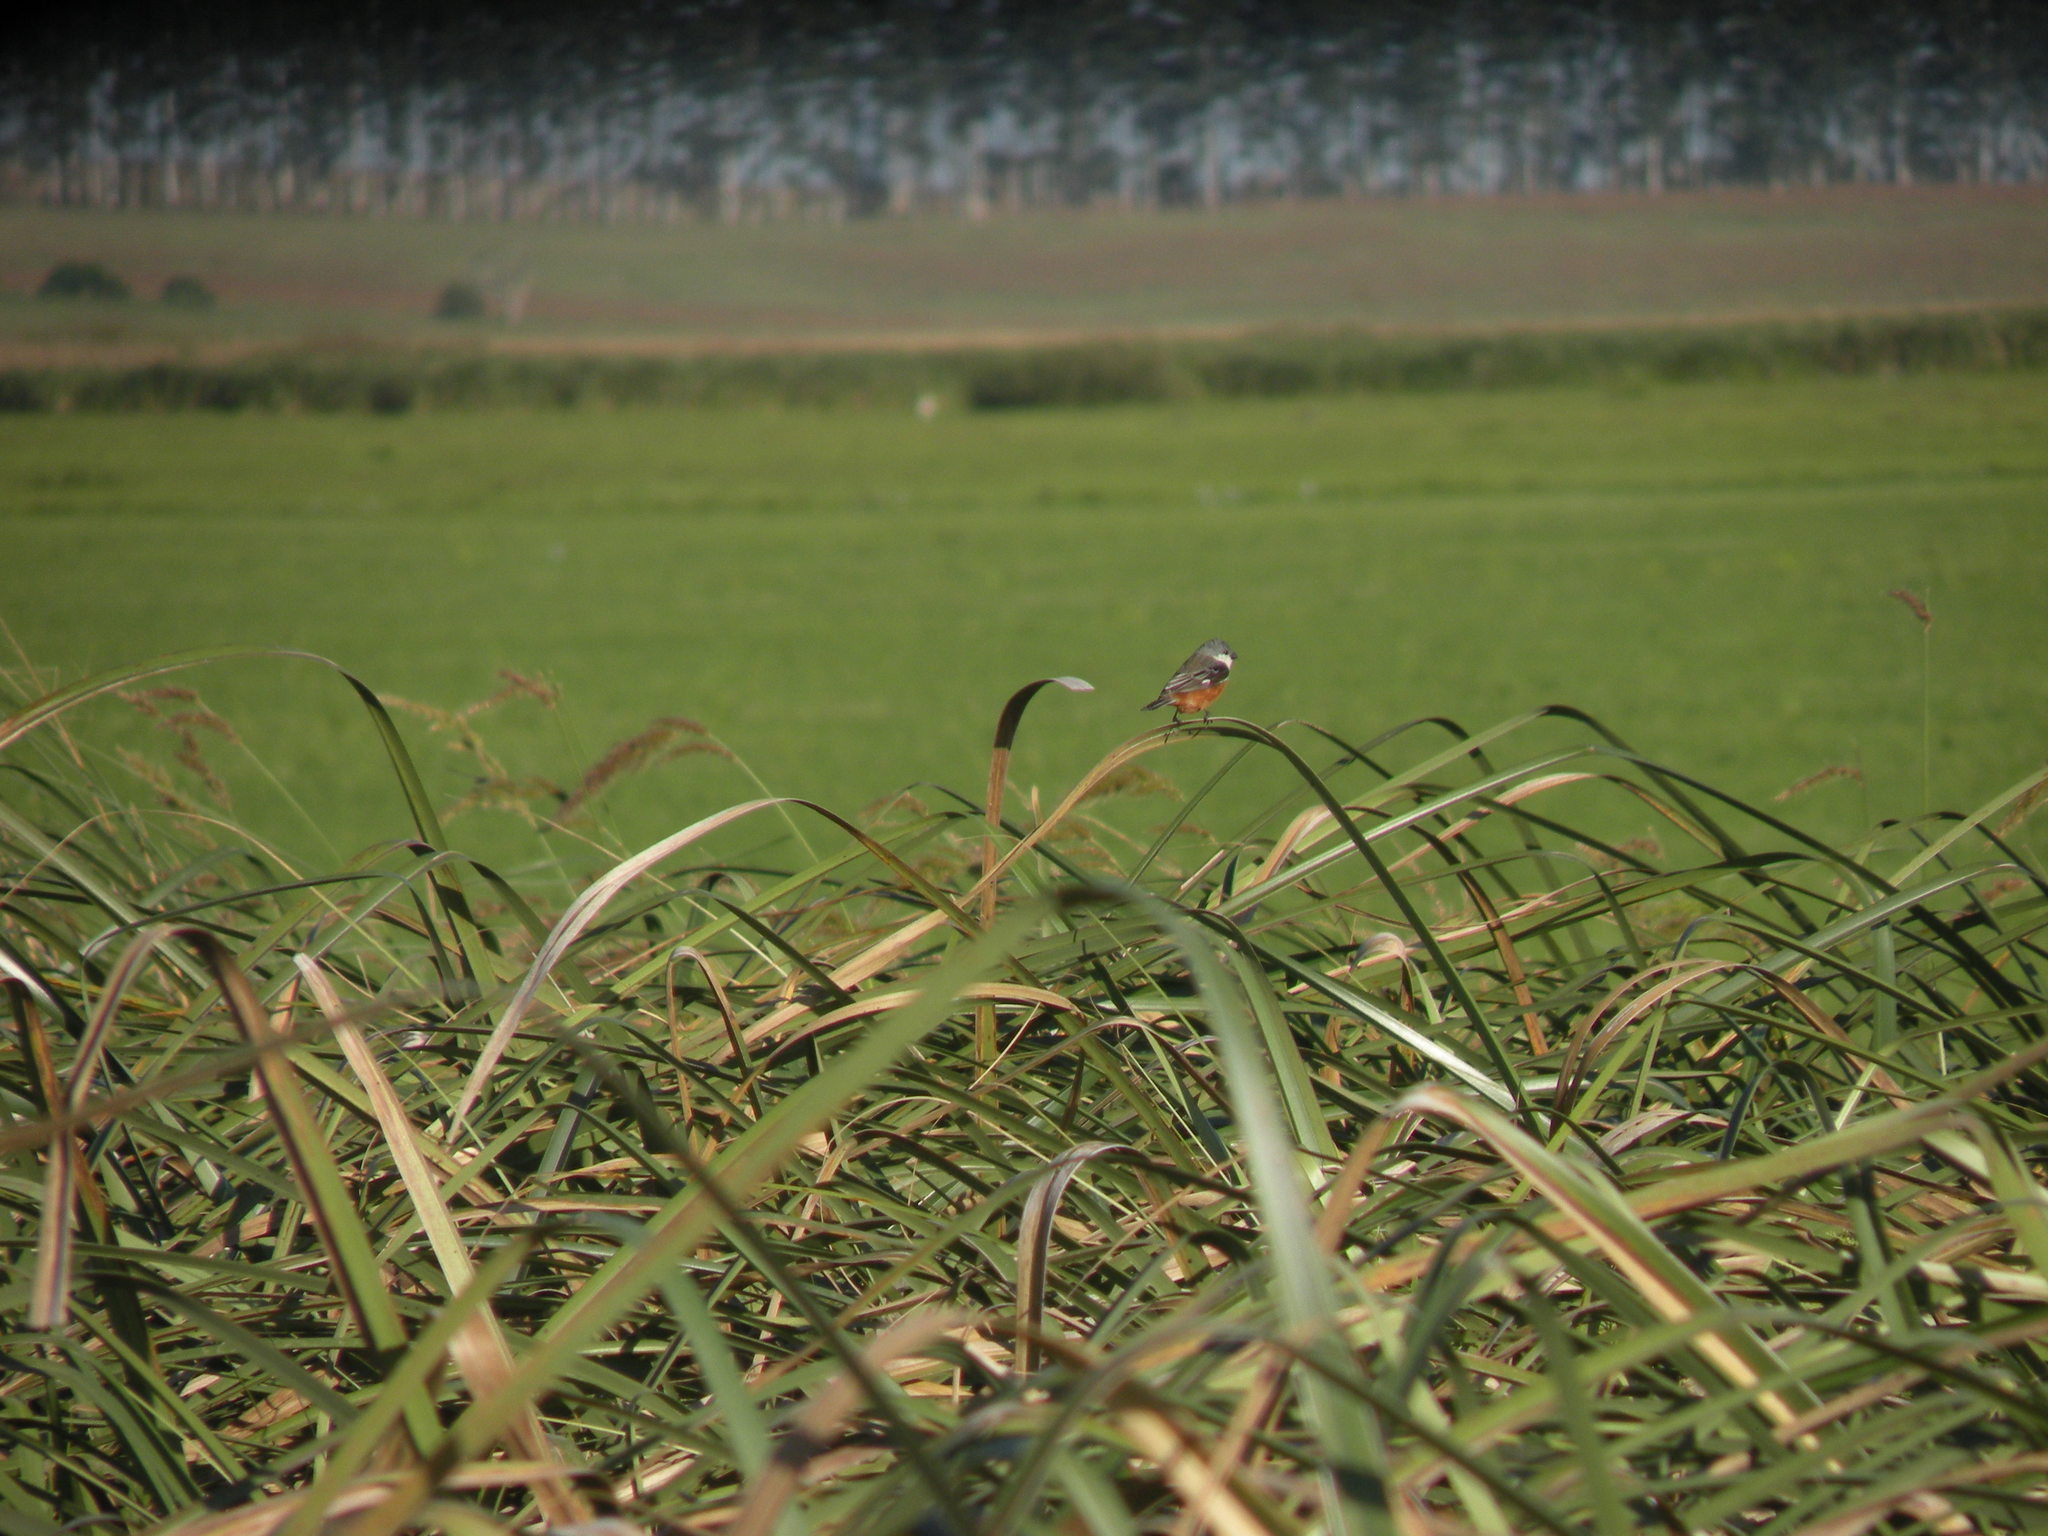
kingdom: Animalia
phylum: Chordata
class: Aves
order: Passeriformes
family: Thraupidae
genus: Sporophila
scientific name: Sporophila palustris
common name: Marsh seedeater
